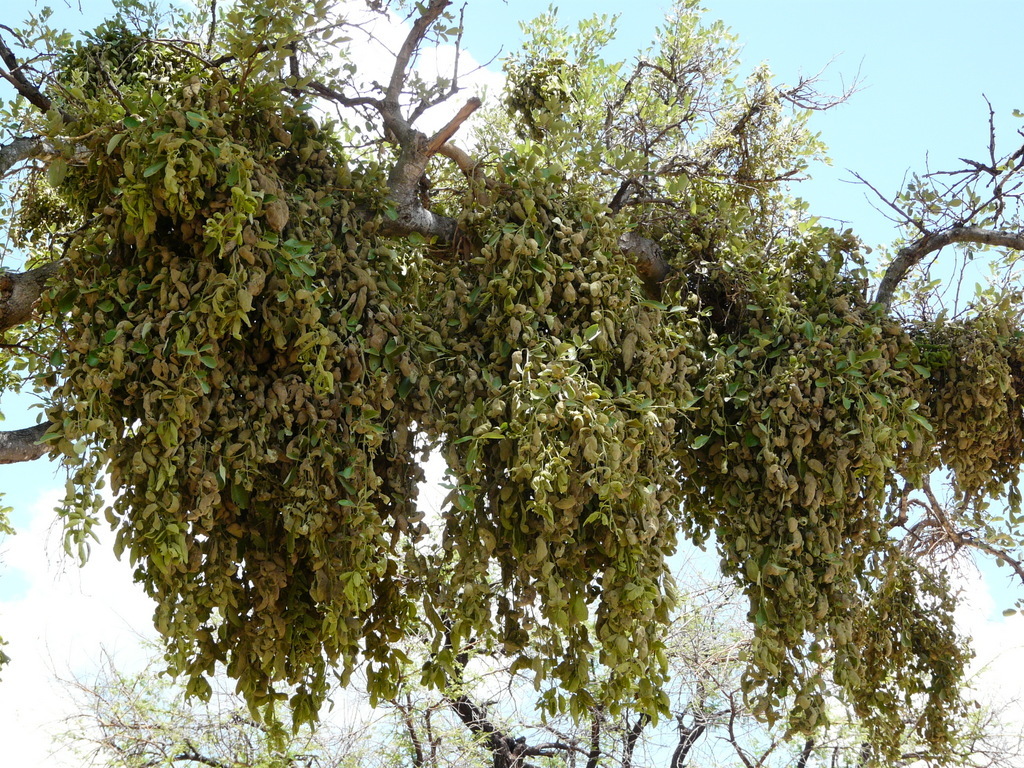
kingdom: Plantae
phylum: Tracheophyta
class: Magnoliopsida
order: Fabales
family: Fabaceae
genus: Philenoptera
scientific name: Philenoptera violacea
